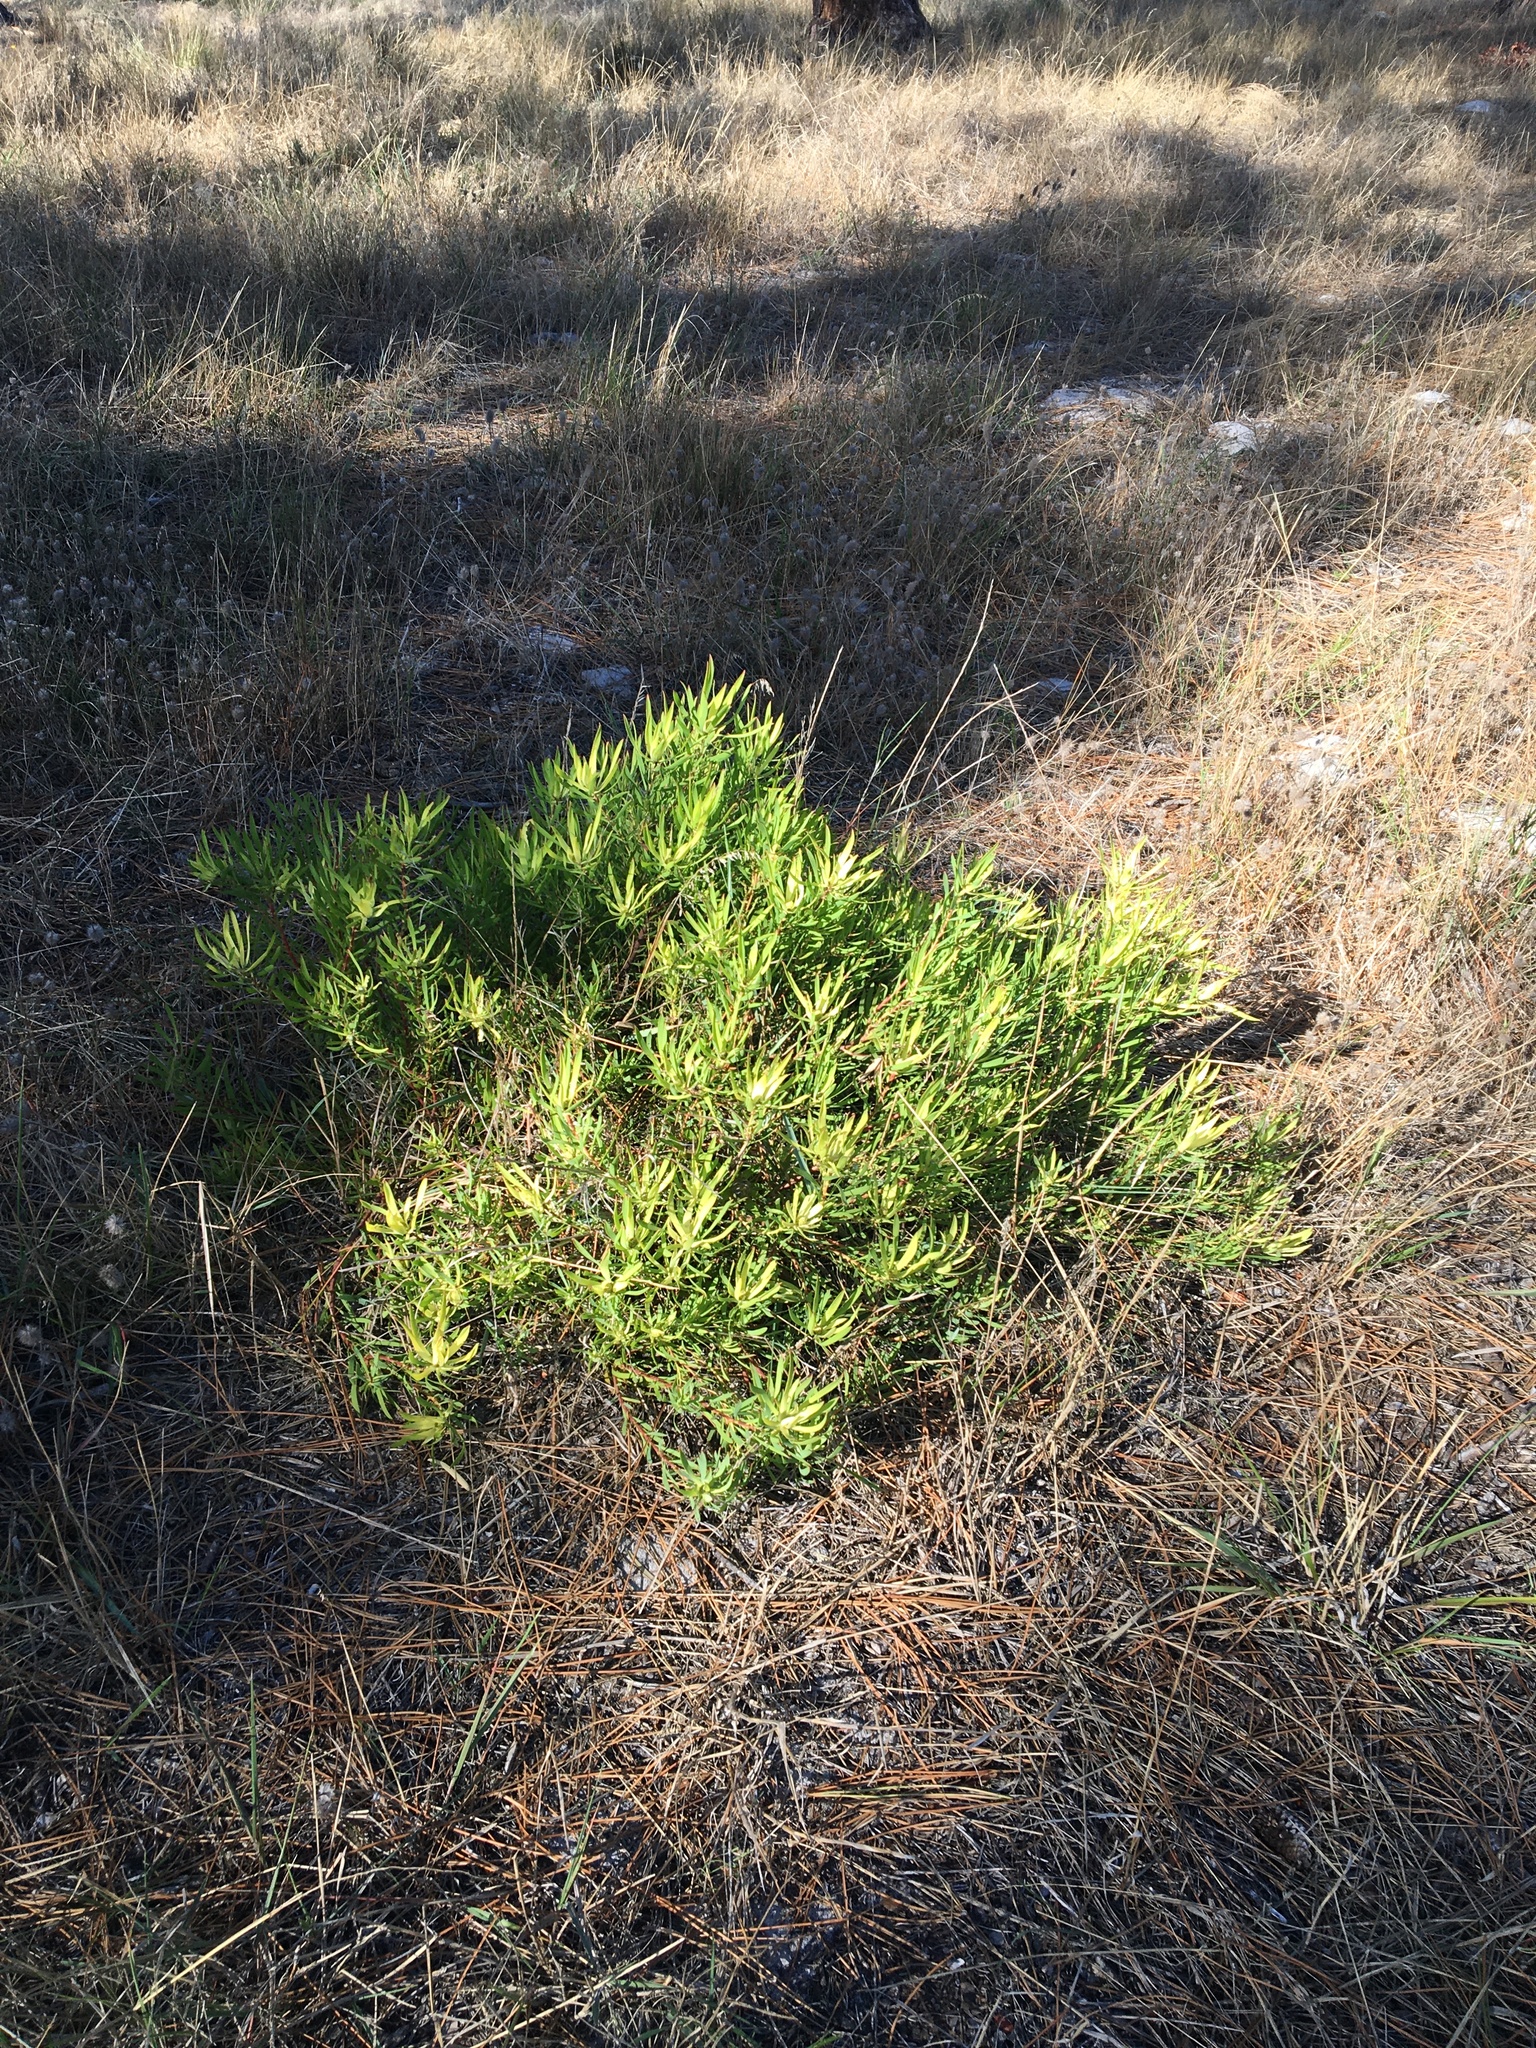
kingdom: Plantae
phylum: Tracheophyta
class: Magnoliopsida
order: Proteales
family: Proteaceae
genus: Leucadendron
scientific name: Leucadendron salignum
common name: Common sunshine conebush
